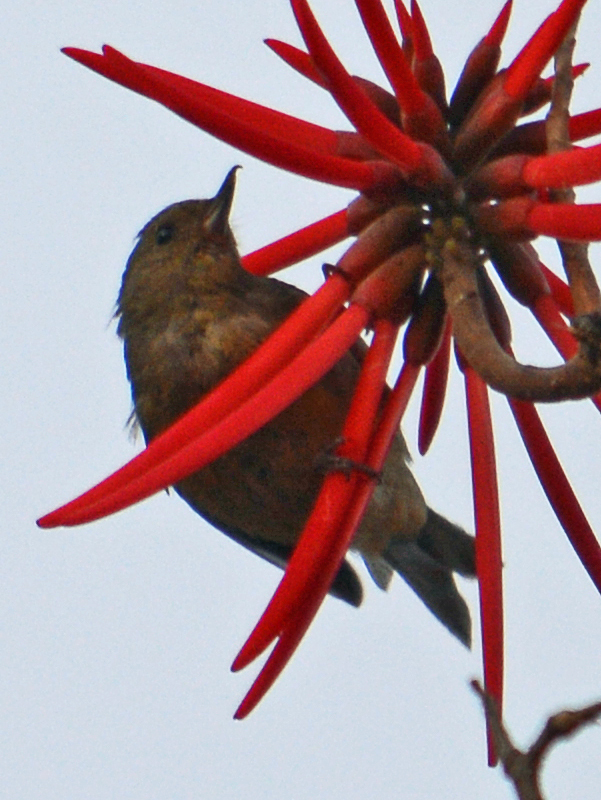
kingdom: Animalia
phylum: Chordata
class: Aves
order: Passeriformes
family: Thraupidae
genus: Diglossa
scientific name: Diglossa baritula
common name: Cinnamon-bellied flowerpiercer
